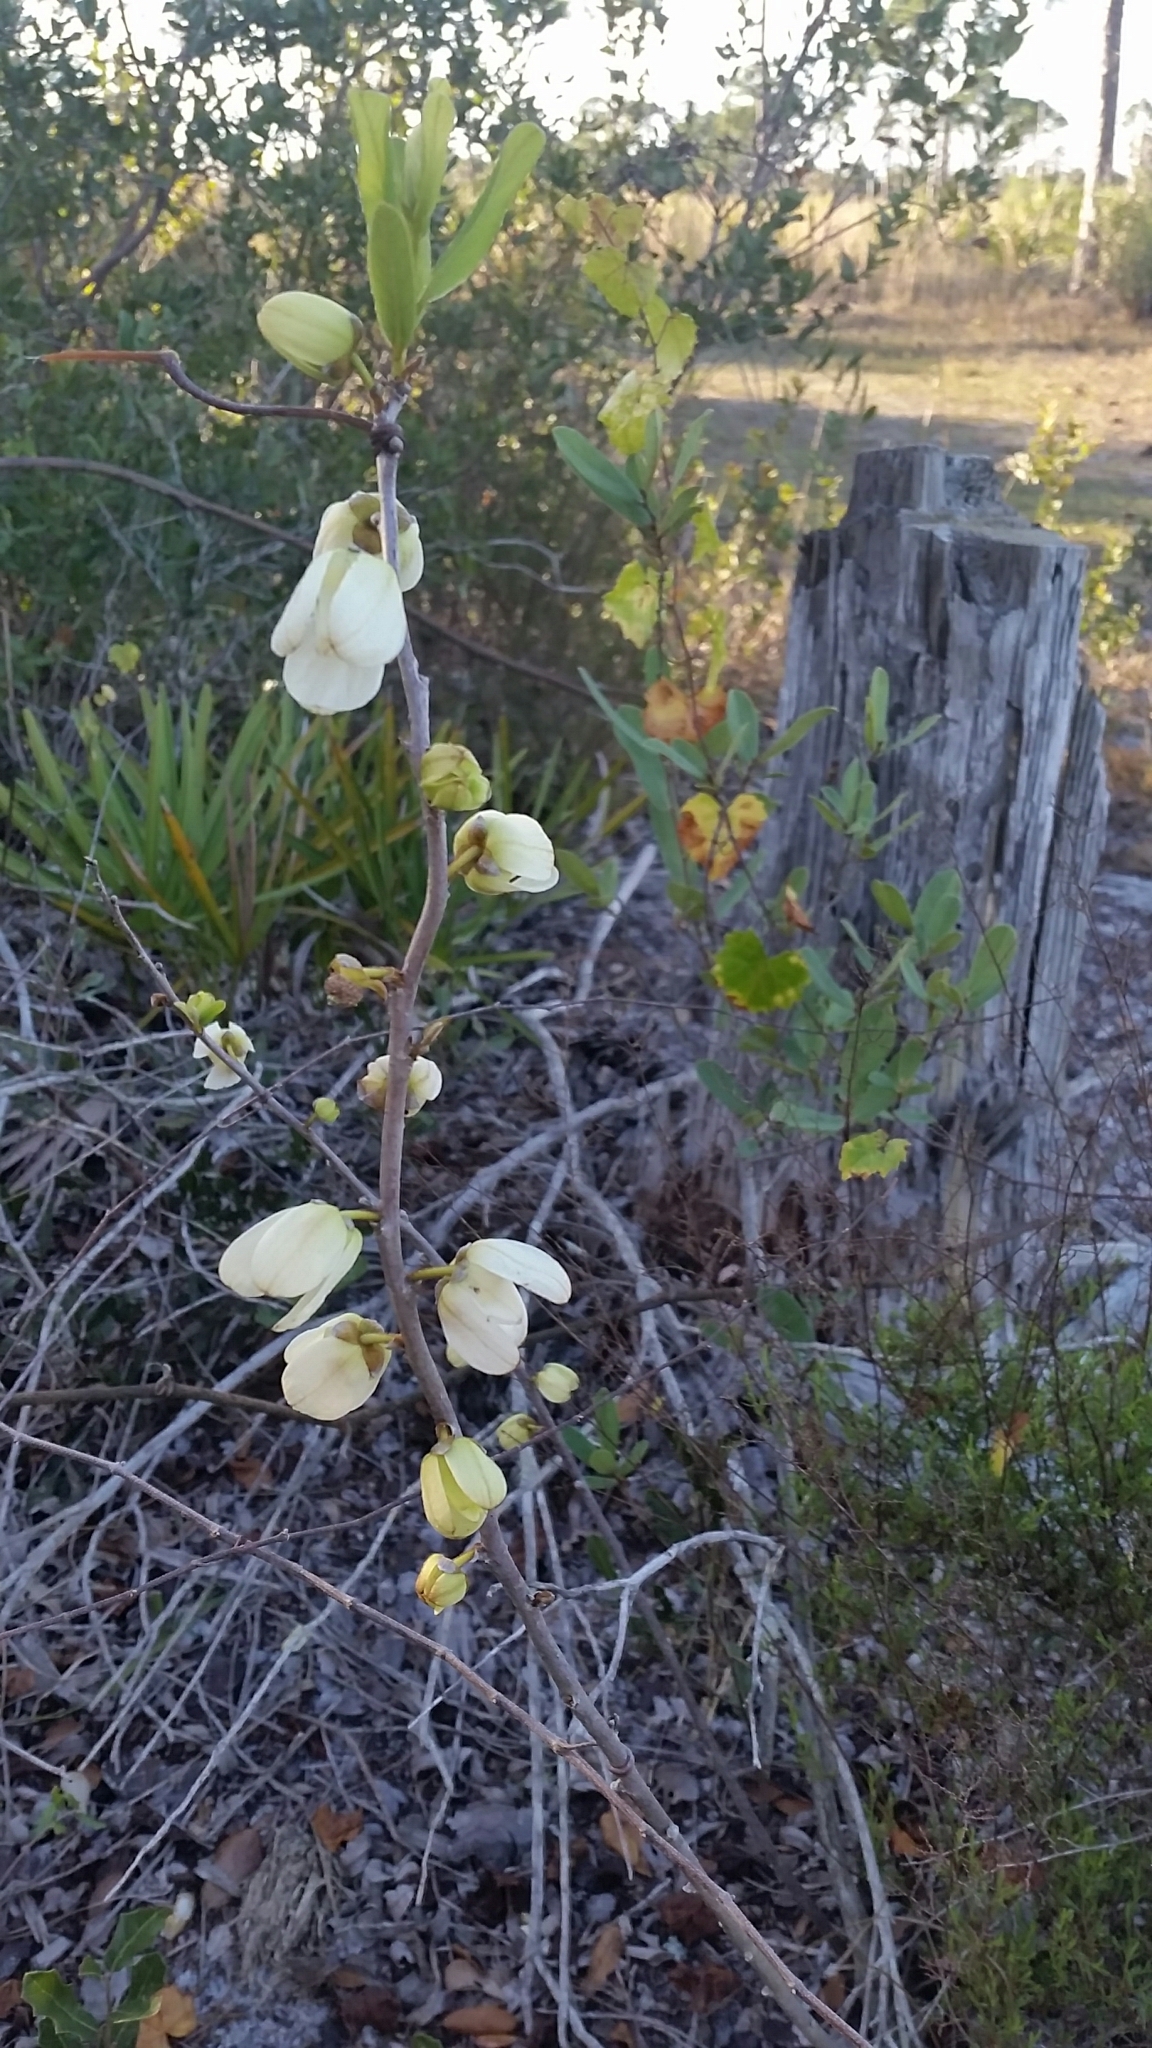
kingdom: Plantae
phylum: Tracheophyta
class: Magnoliopsida
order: Magnoliales
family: Annonaceae
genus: Asimina
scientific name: Asimina reticulata
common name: Flag pawpaw
